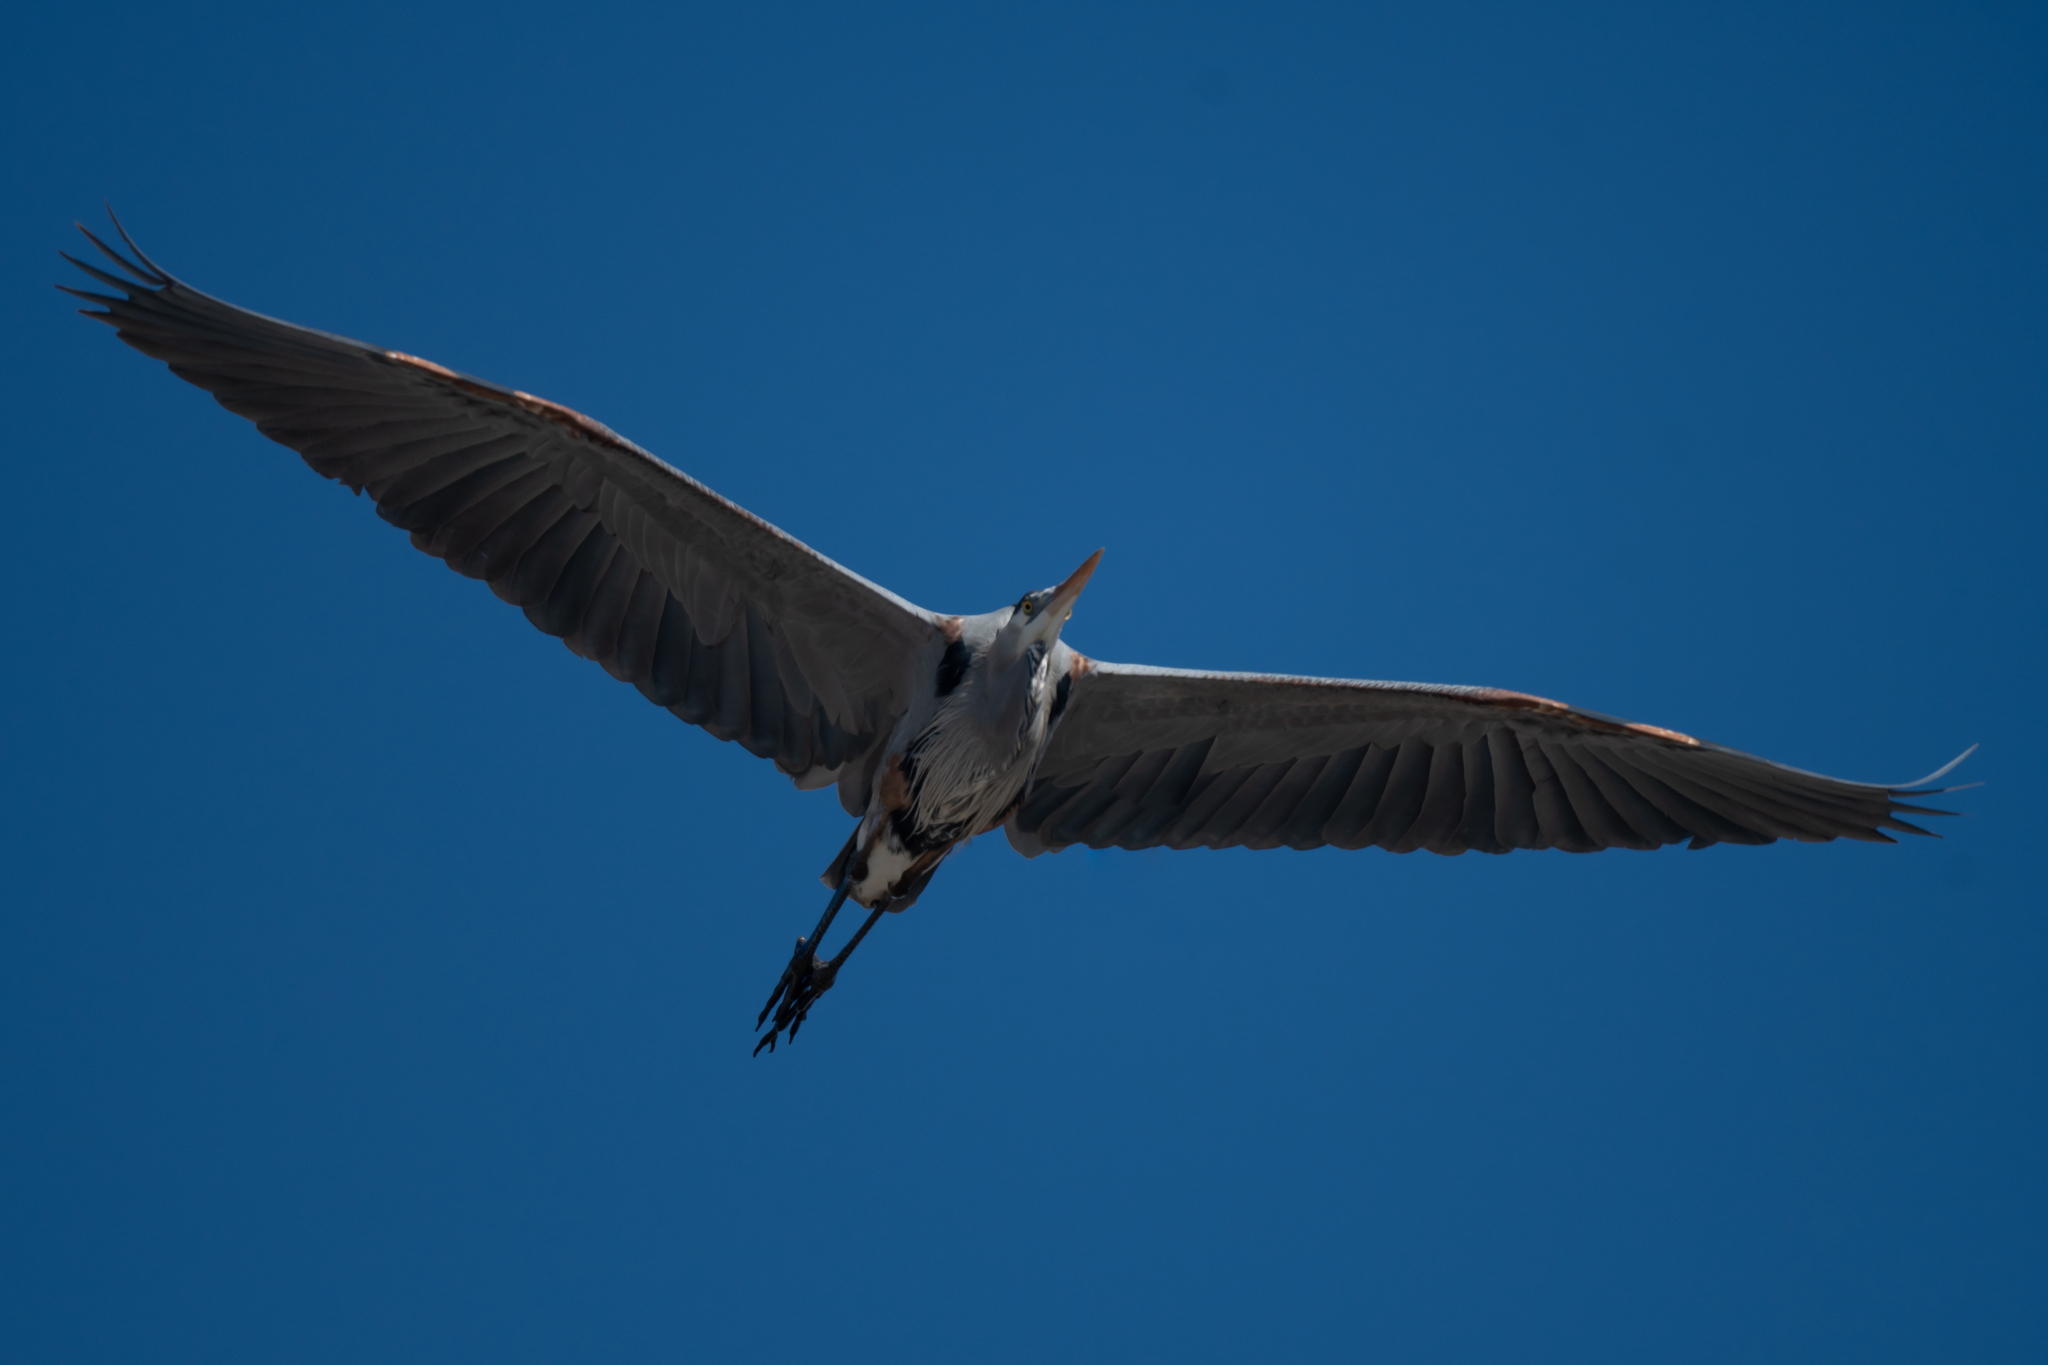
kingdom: Animalia
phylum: Chordata
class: Aves
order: Pelecaniformes
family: Ardeidae
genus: Ardea
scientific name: Ardea herodias
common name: Great blue heron
